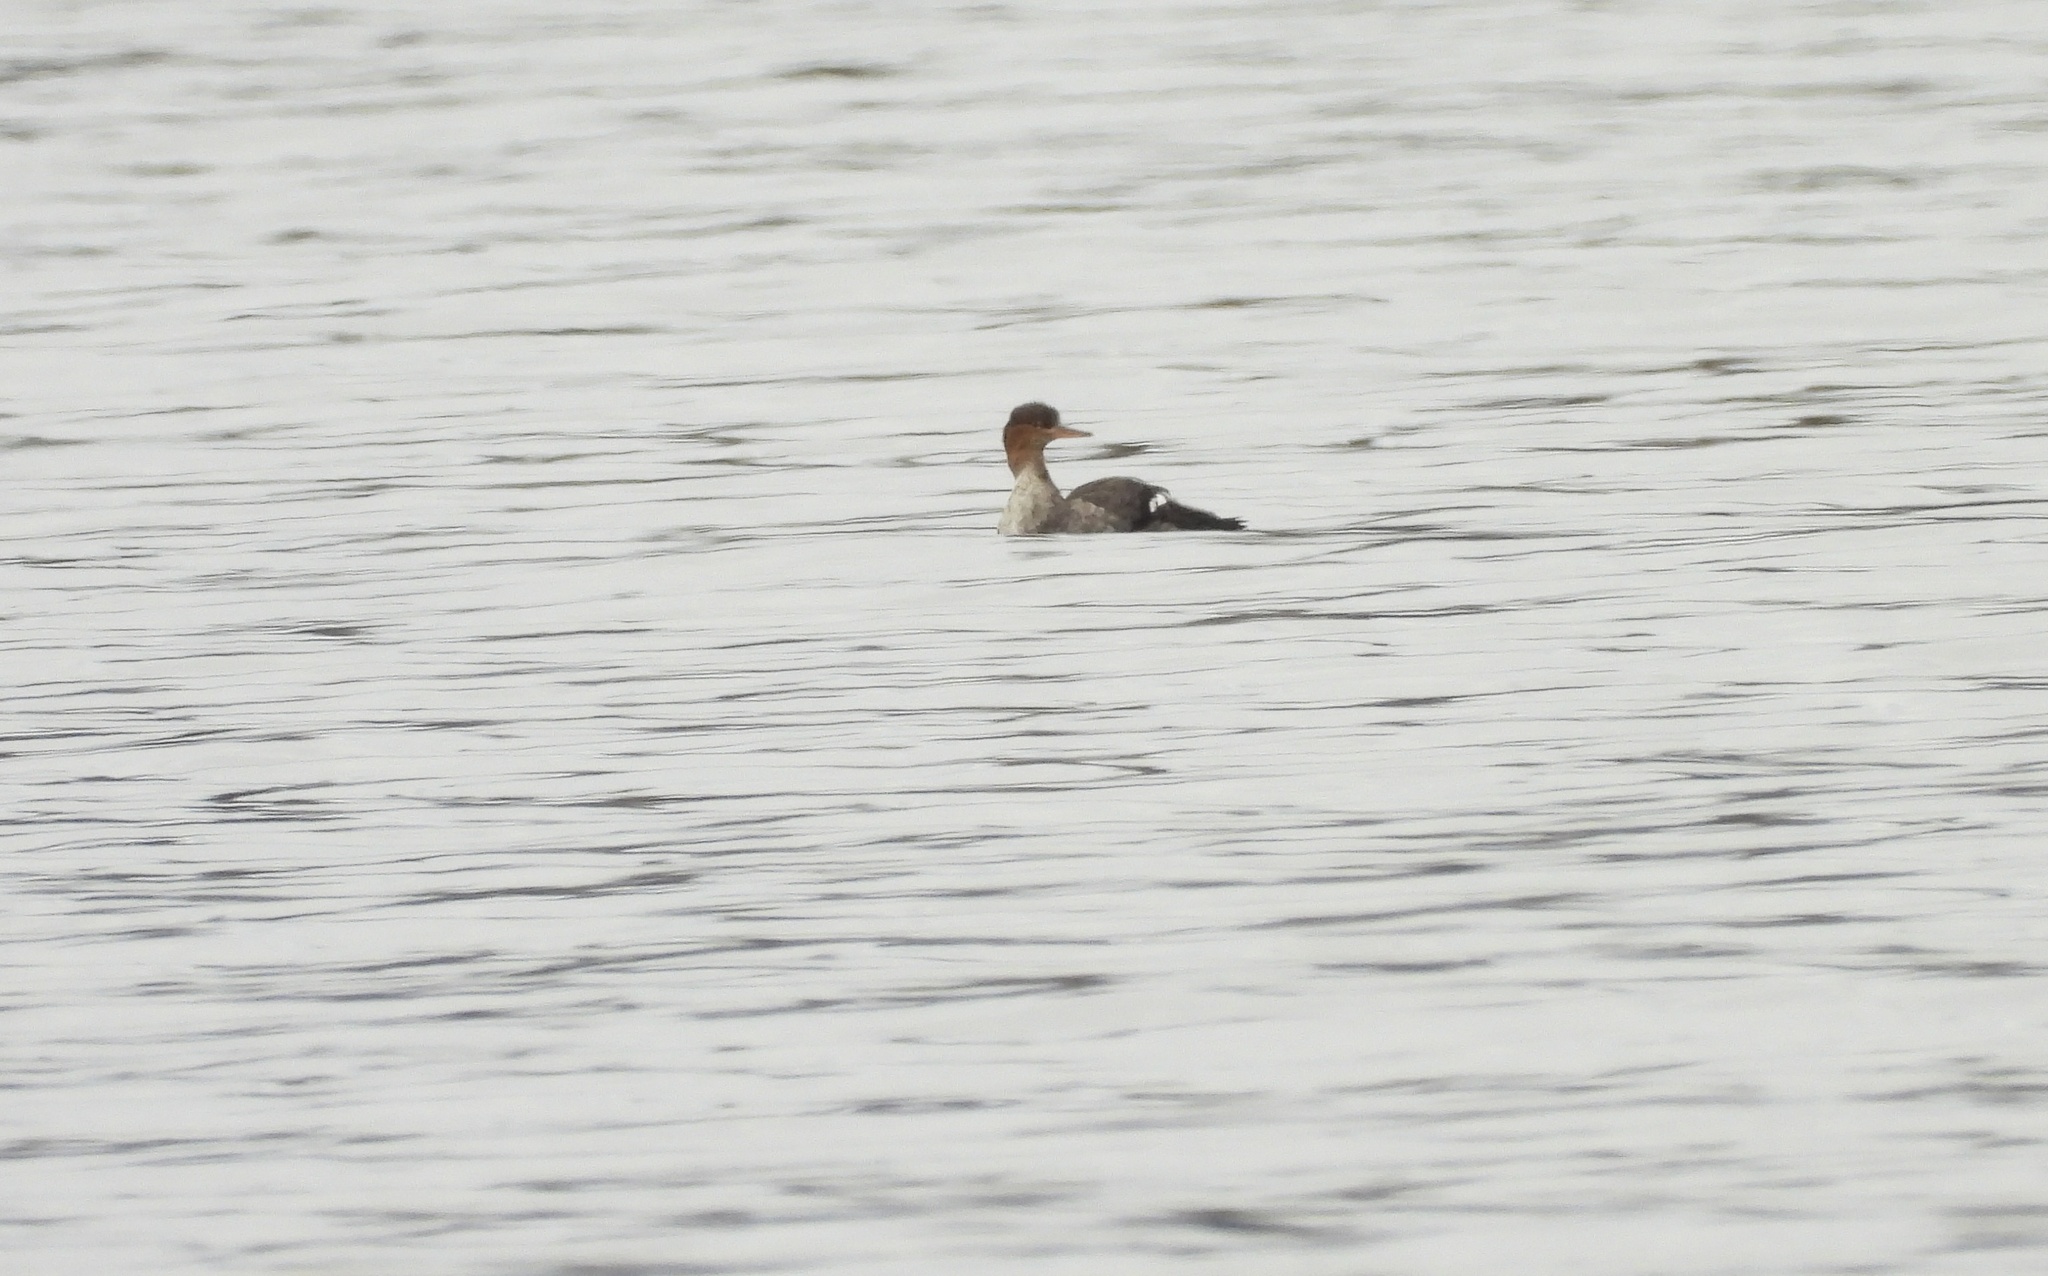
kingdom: Animalia
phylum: Chordata
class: Aves
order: Anseriformes
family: Anatidae
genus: Mergus
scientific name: Mergus serrator
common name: Red-breasted merganser
